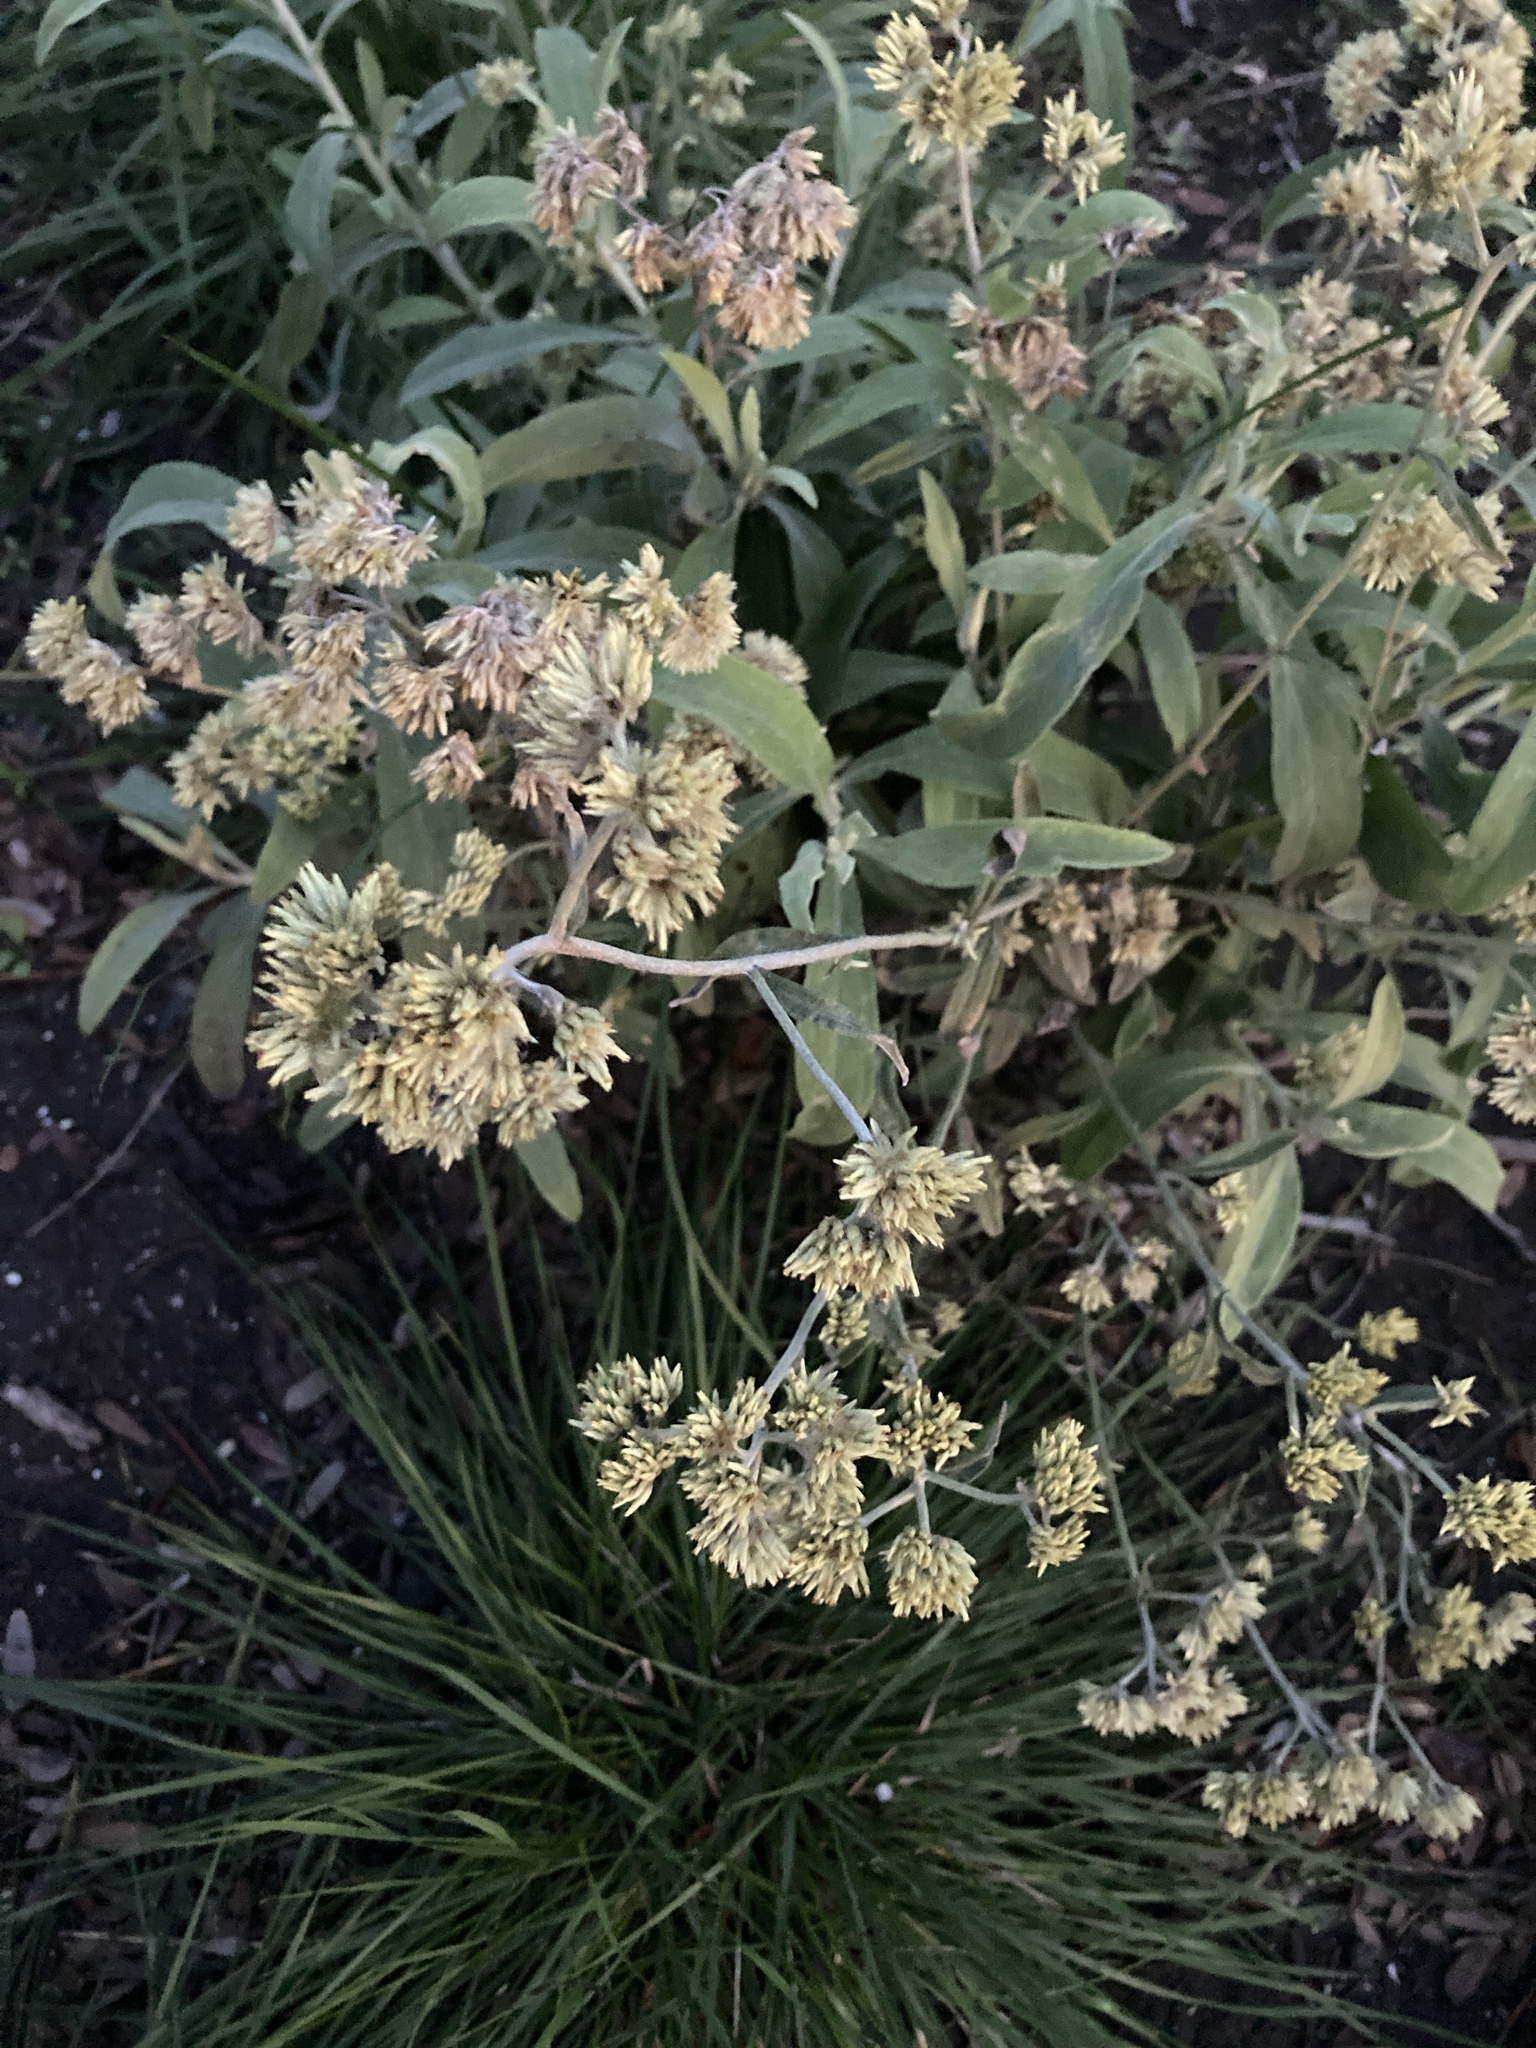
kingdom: Plantae
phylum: Tracheophyta
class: Magnoliopsida
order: Asterales
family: Asteraceae
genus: Achyrocline
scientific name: Achyrocline satureioides
